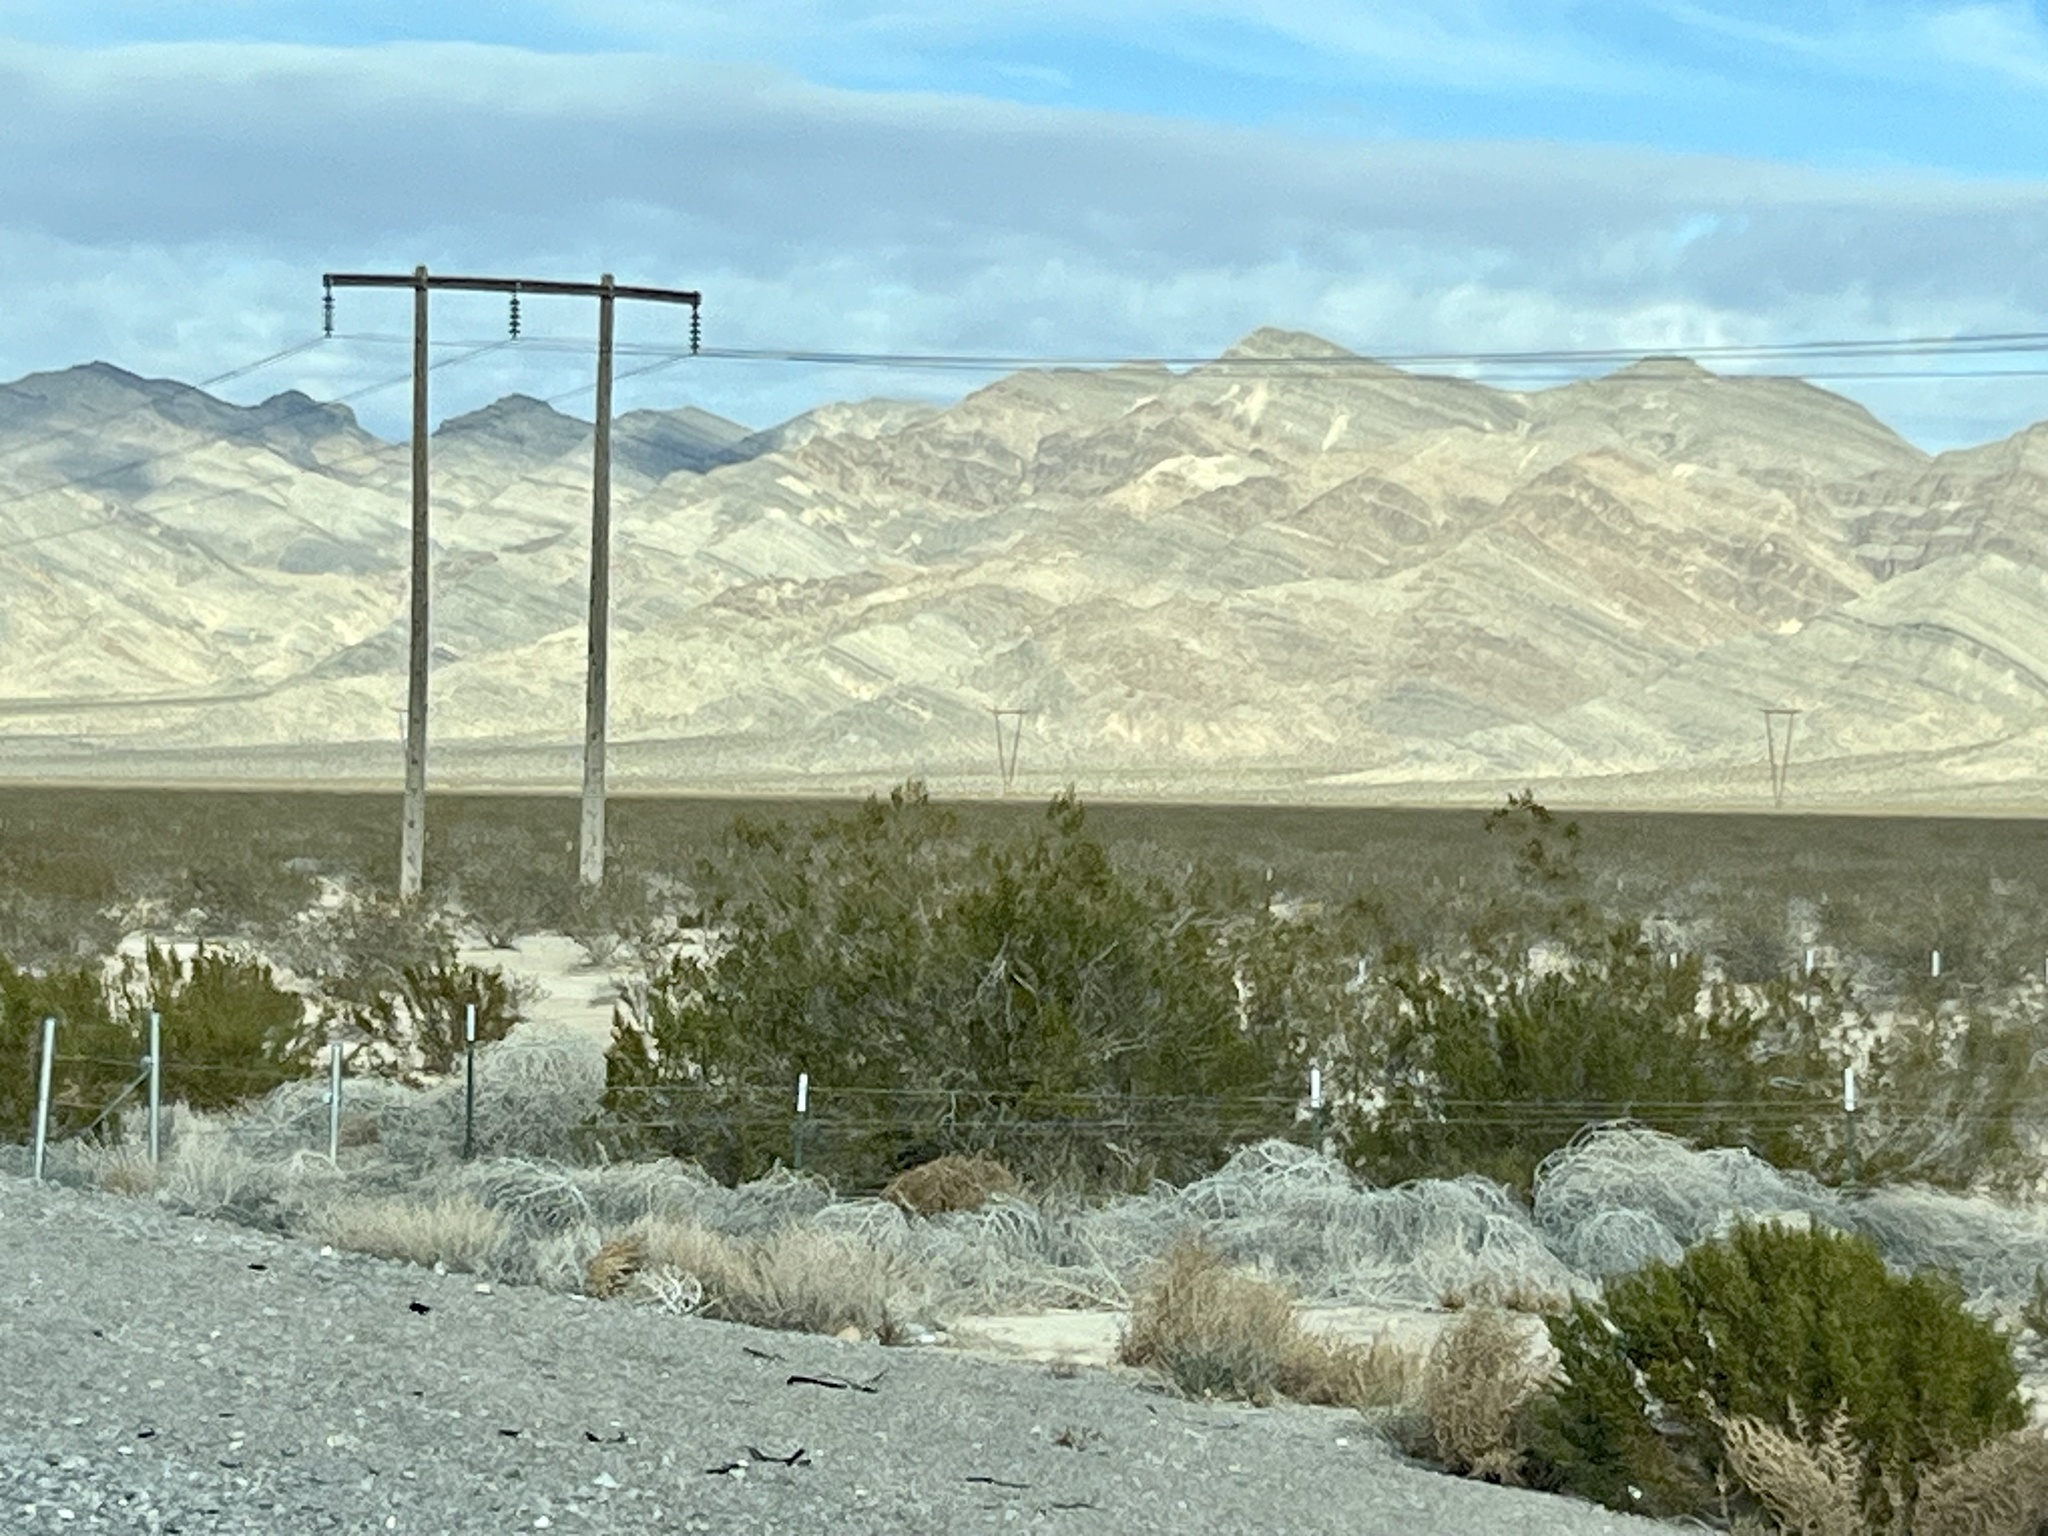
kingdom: Plantae
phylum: Tracheophyta
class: Magnoliopsida
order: Zygophyllales
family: Zygophyllaceae
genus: Larrea
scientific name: Larrea tridentata
